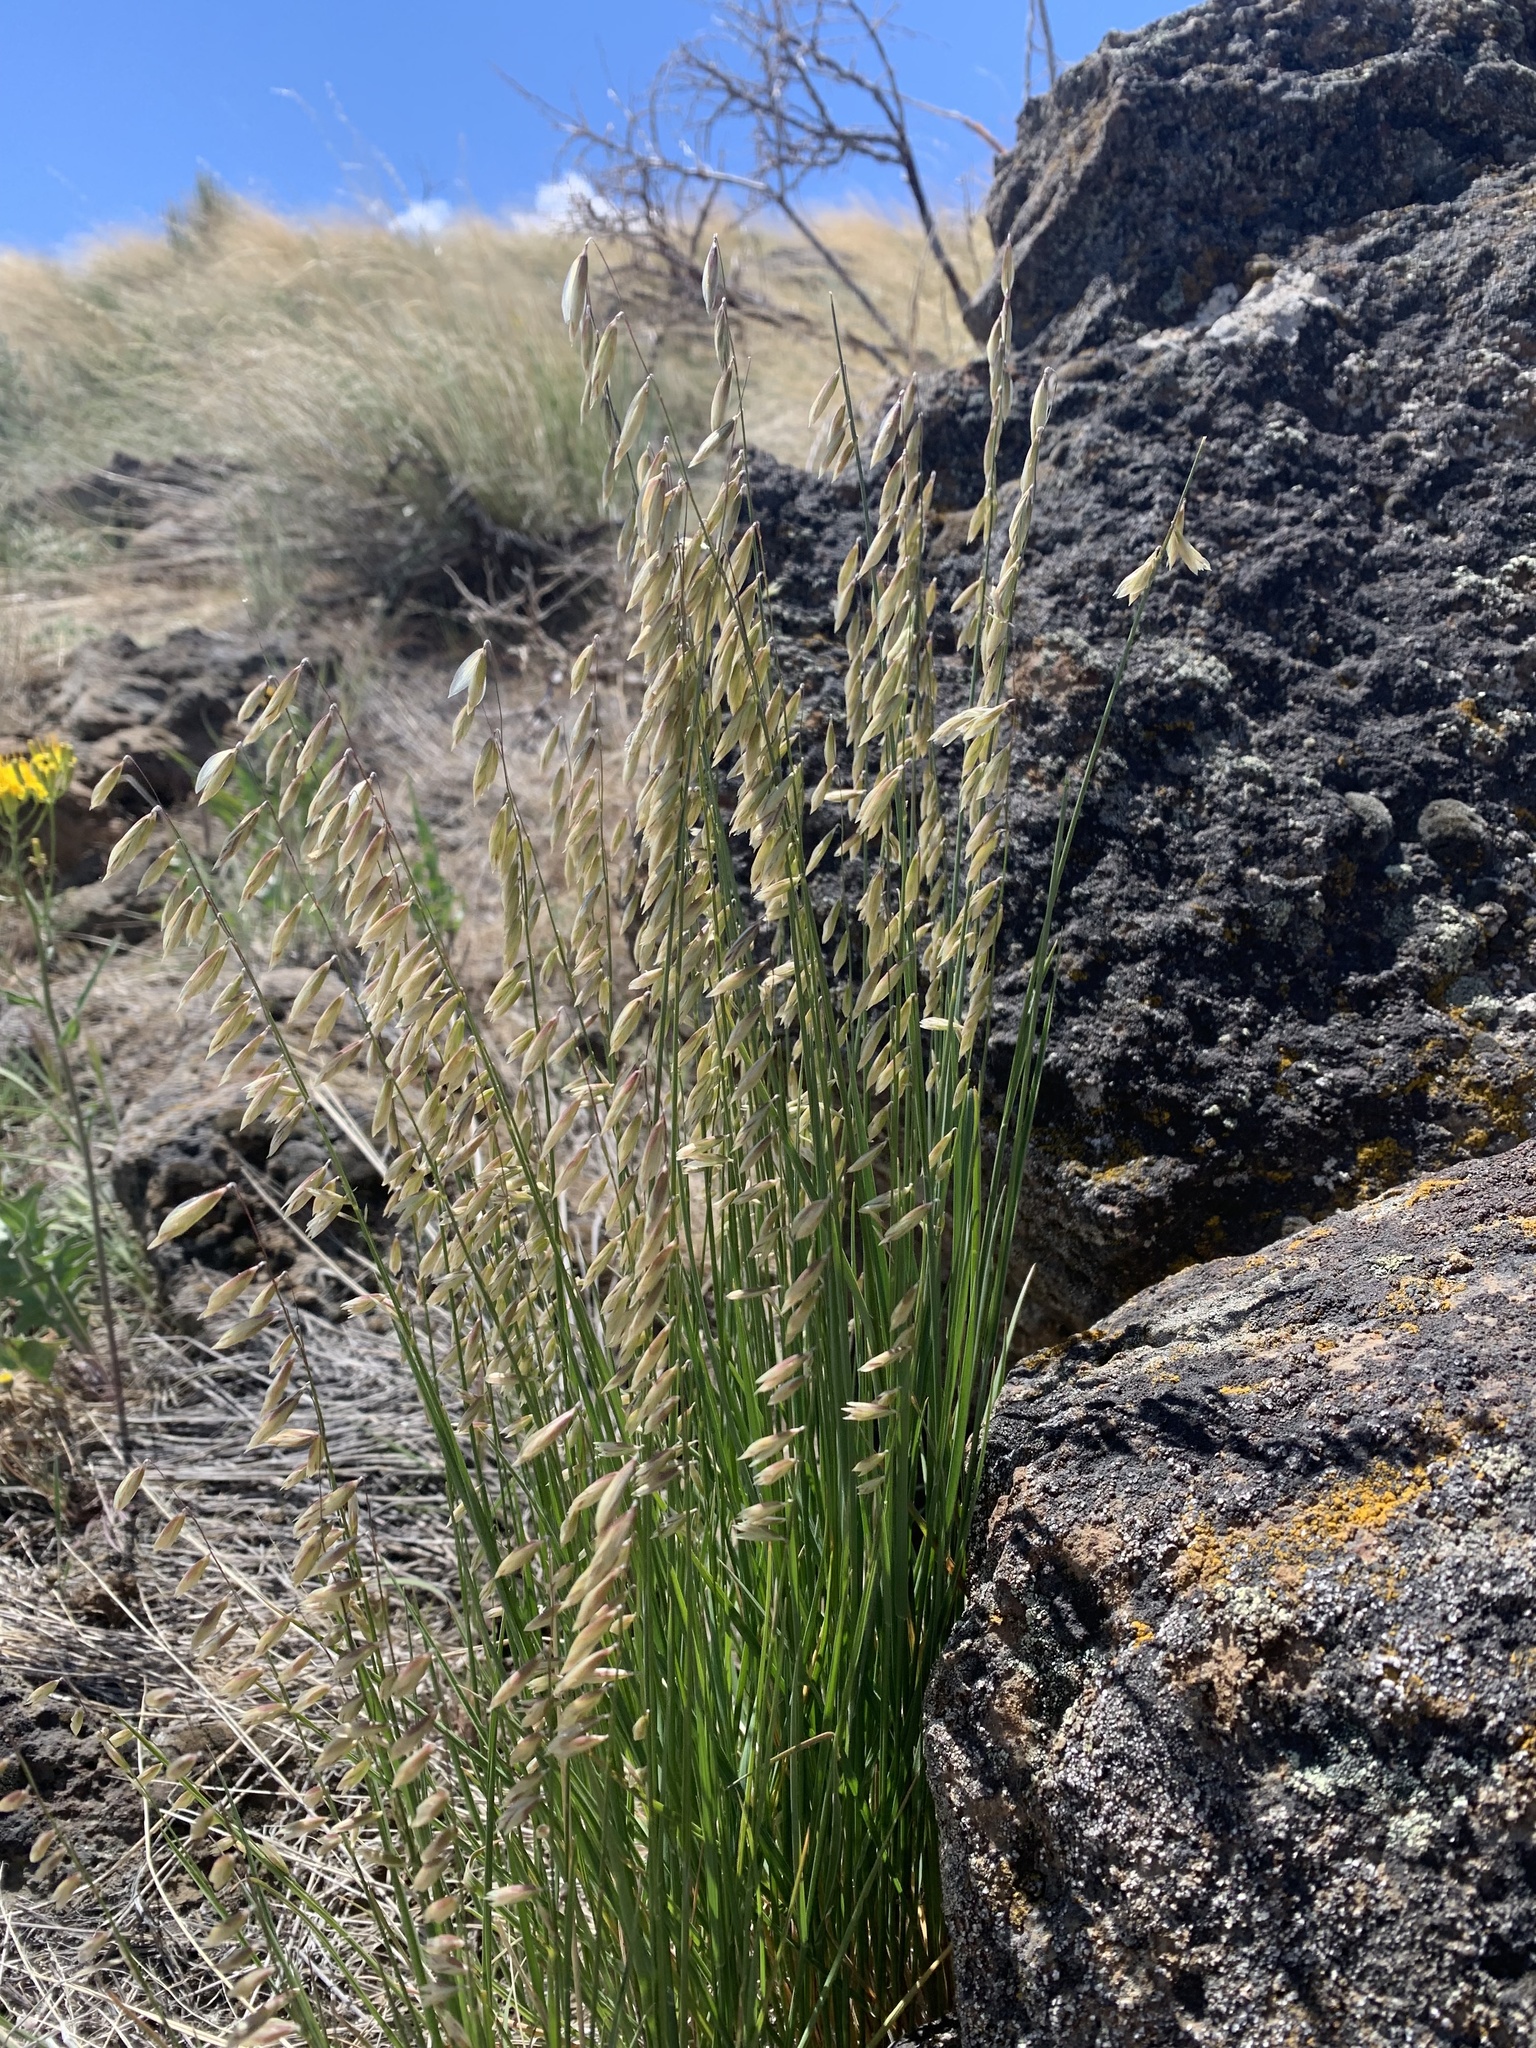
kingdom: Plantae
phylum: Tracheophyta
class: Liliopsida
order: Poales
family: Poaceae
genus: Melica
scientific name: Melica stricta
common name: Rock melic
